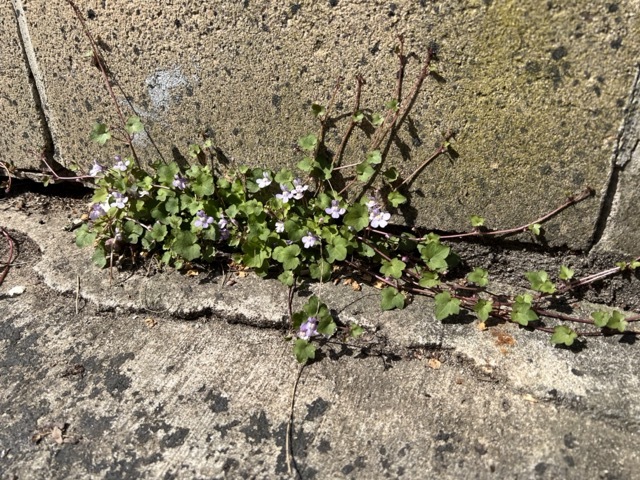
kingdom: Plantae
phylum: Tracheophyta
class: Magnoliopsida
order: Lamiales
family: Plantaginaceae
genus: Cymbalaria
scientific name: Cymbalaria muralis
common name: Ivy-leaved toadflax
